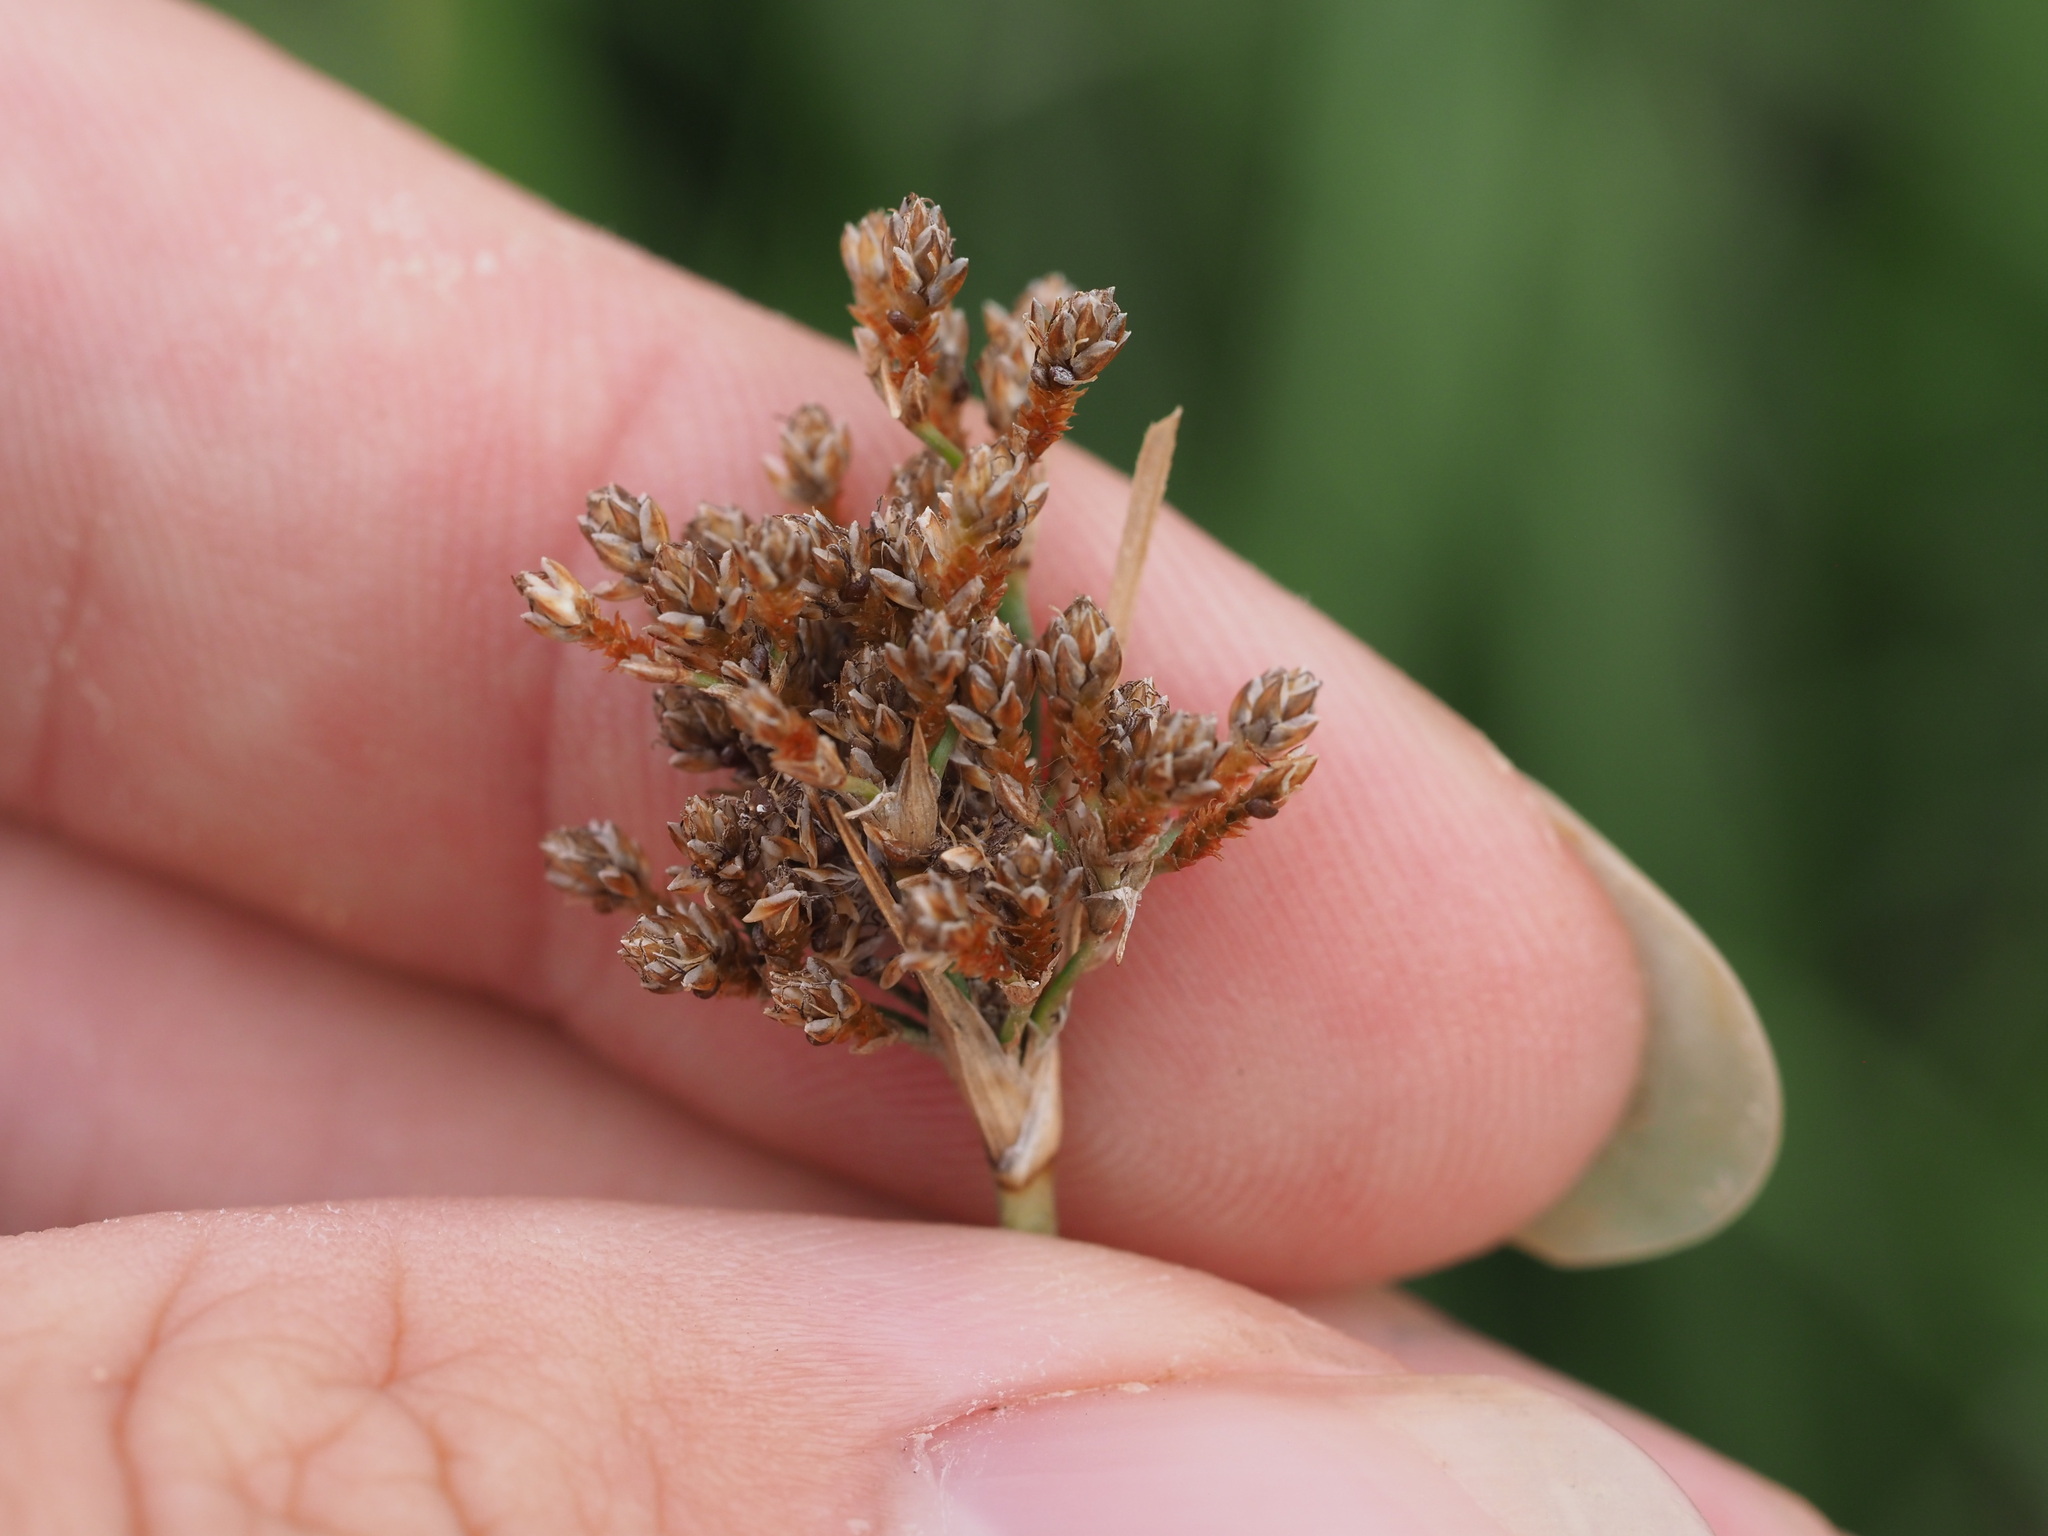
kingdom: Plantae
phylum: Tracheophyta
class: Liliopsida
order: Poales
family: Cyperaceae
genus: Fimbristylis
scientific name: Fimbristylis cymosa
